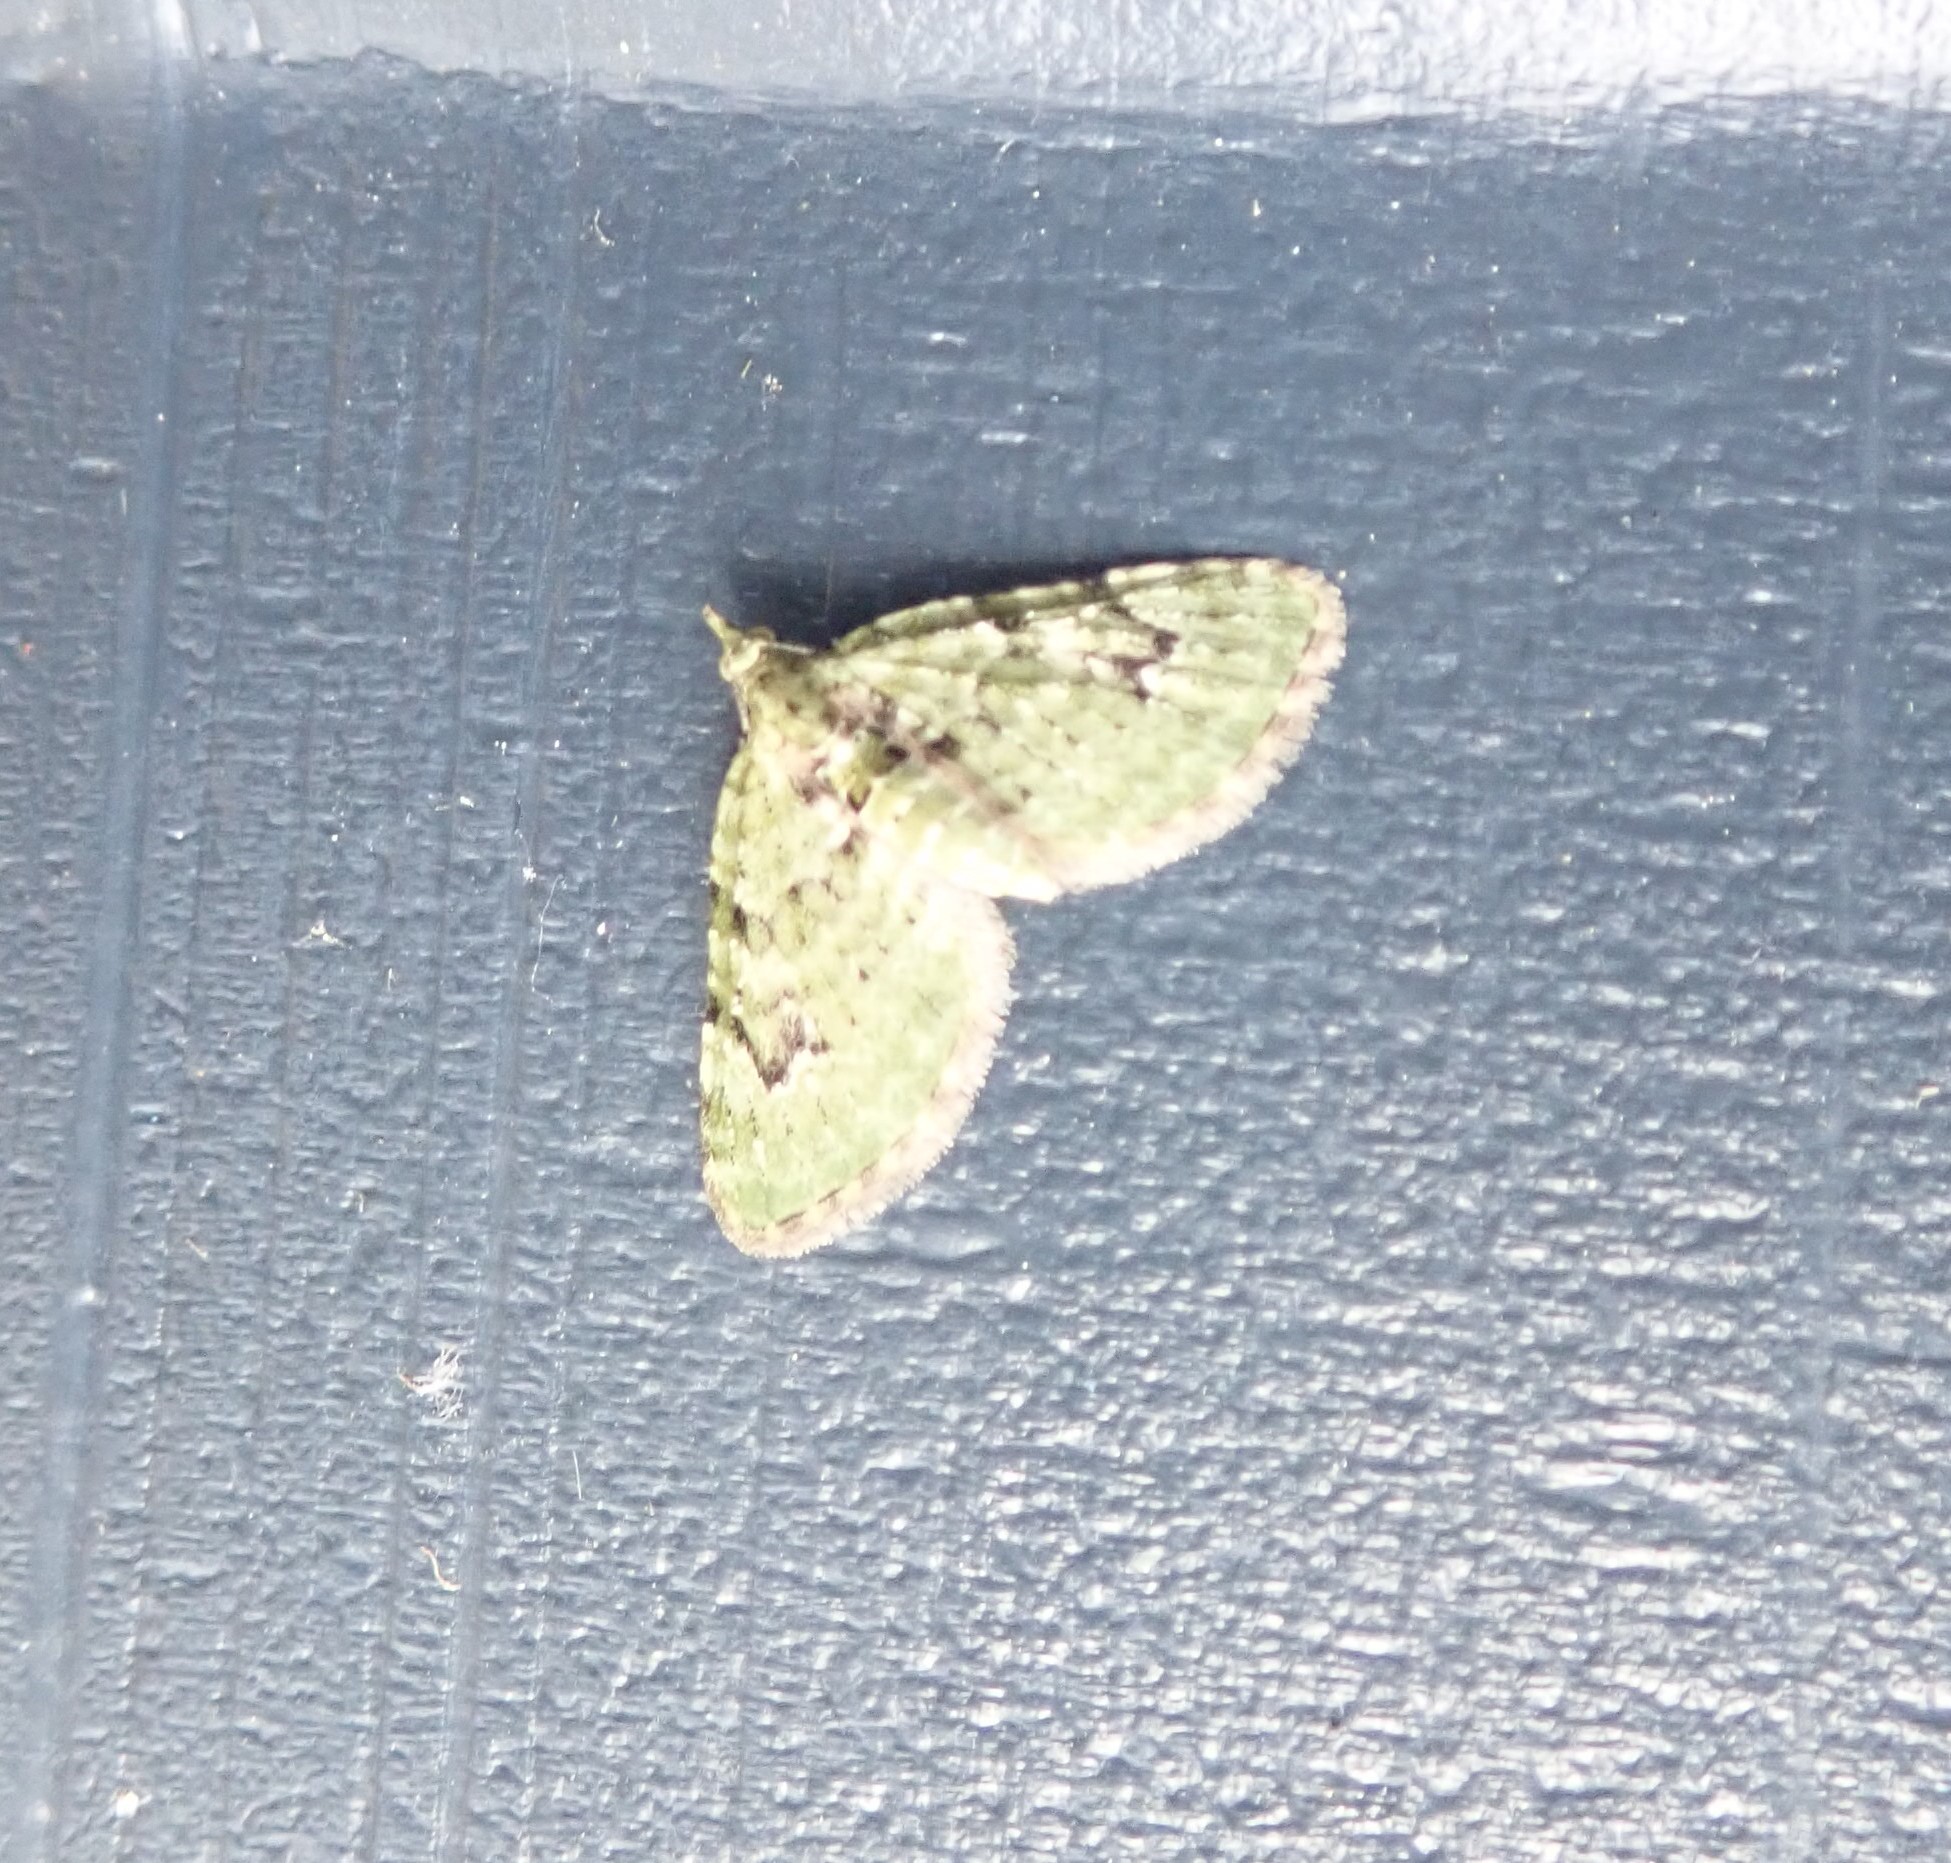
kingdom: Animalia
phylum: Arthropoda
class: Insecta
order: Lepidoptera
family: Geometridae
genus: Chloroclystis
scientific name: Chloroclystis v-ata
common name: V-pug
